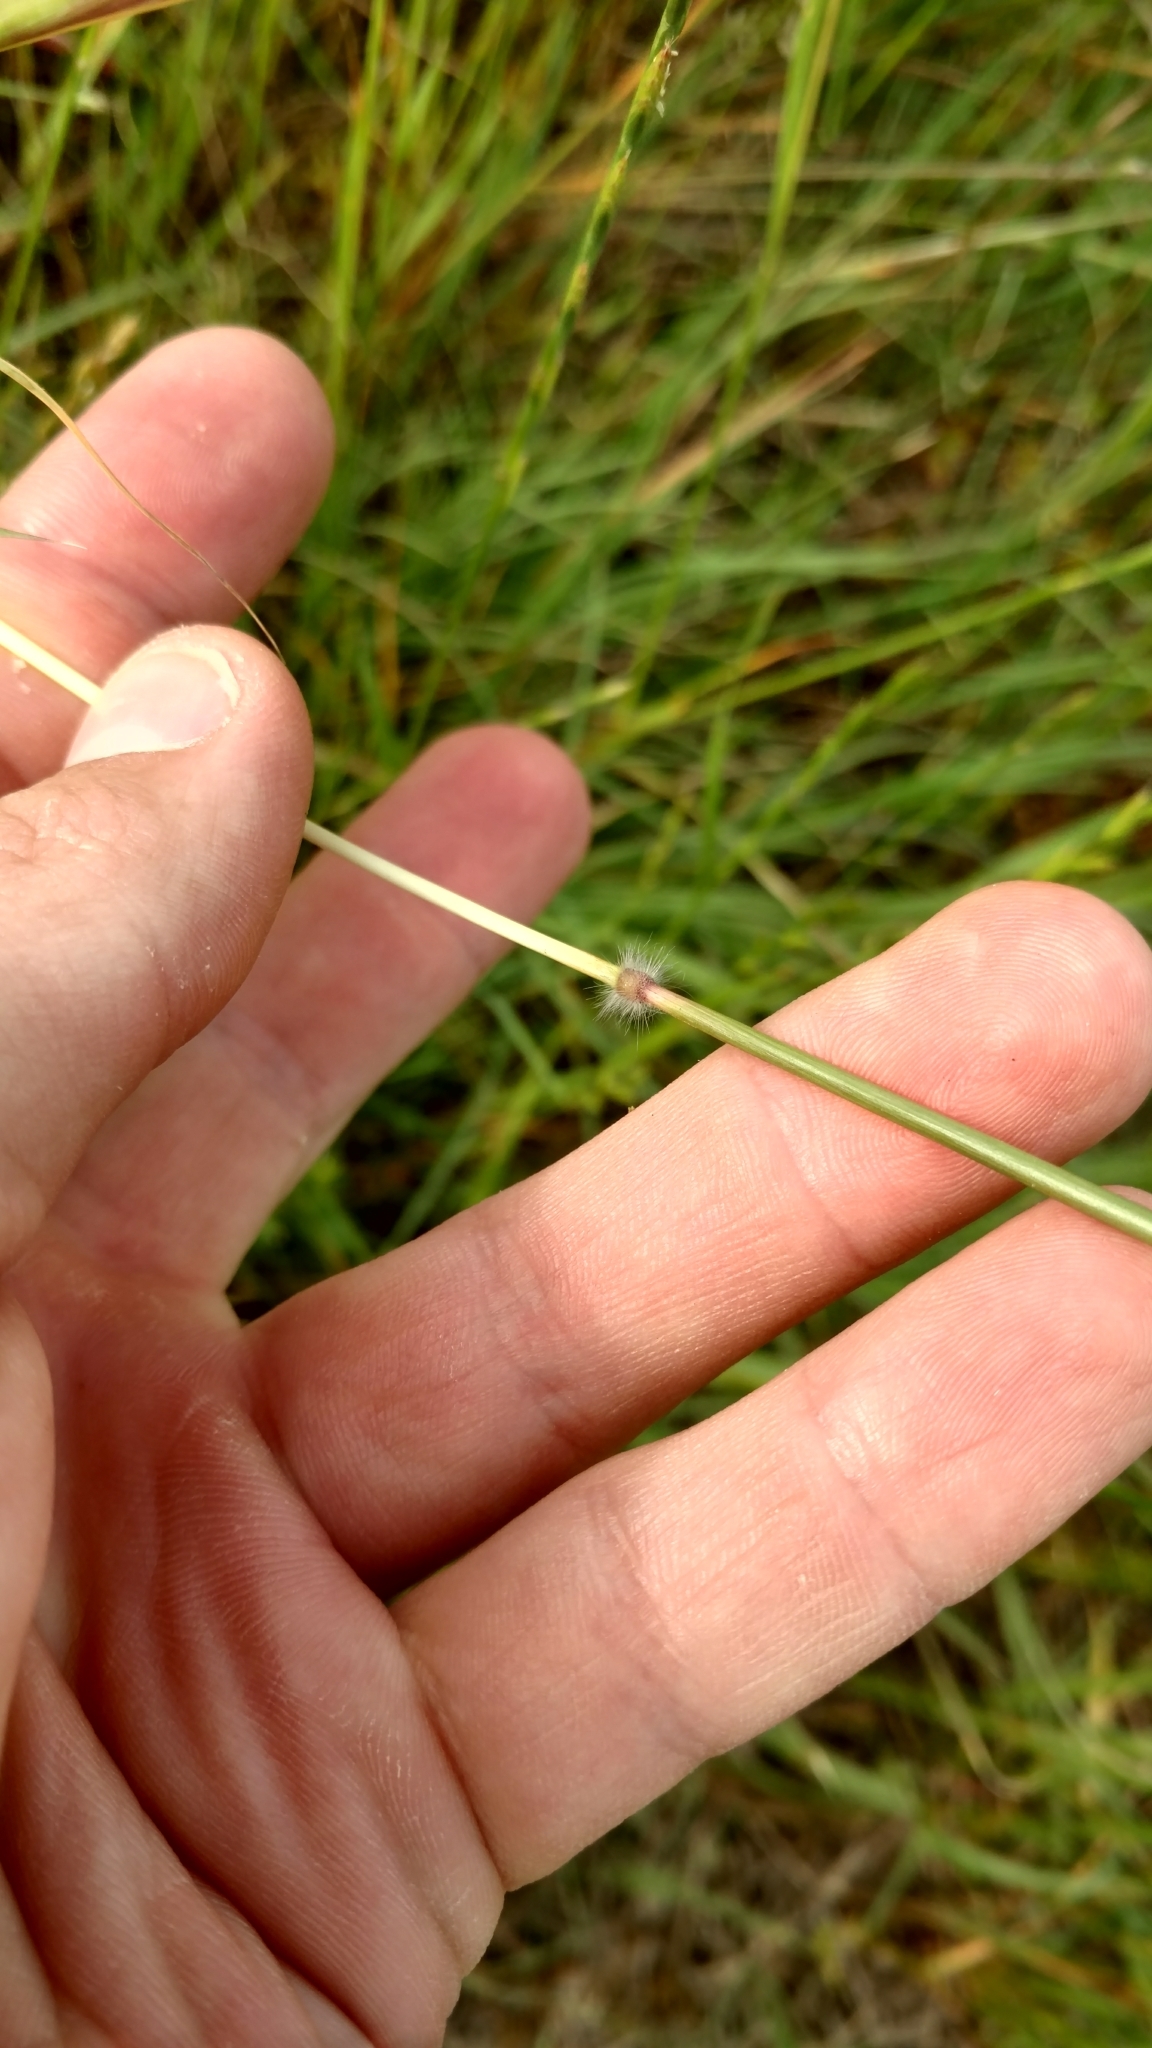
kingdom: Plantae
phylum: Tracheophyta
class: Liliopsida
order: Poales
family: Poaceae
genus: Dichanthium
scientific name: Dichanthium annulatum
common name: Kleberg's bluestem
